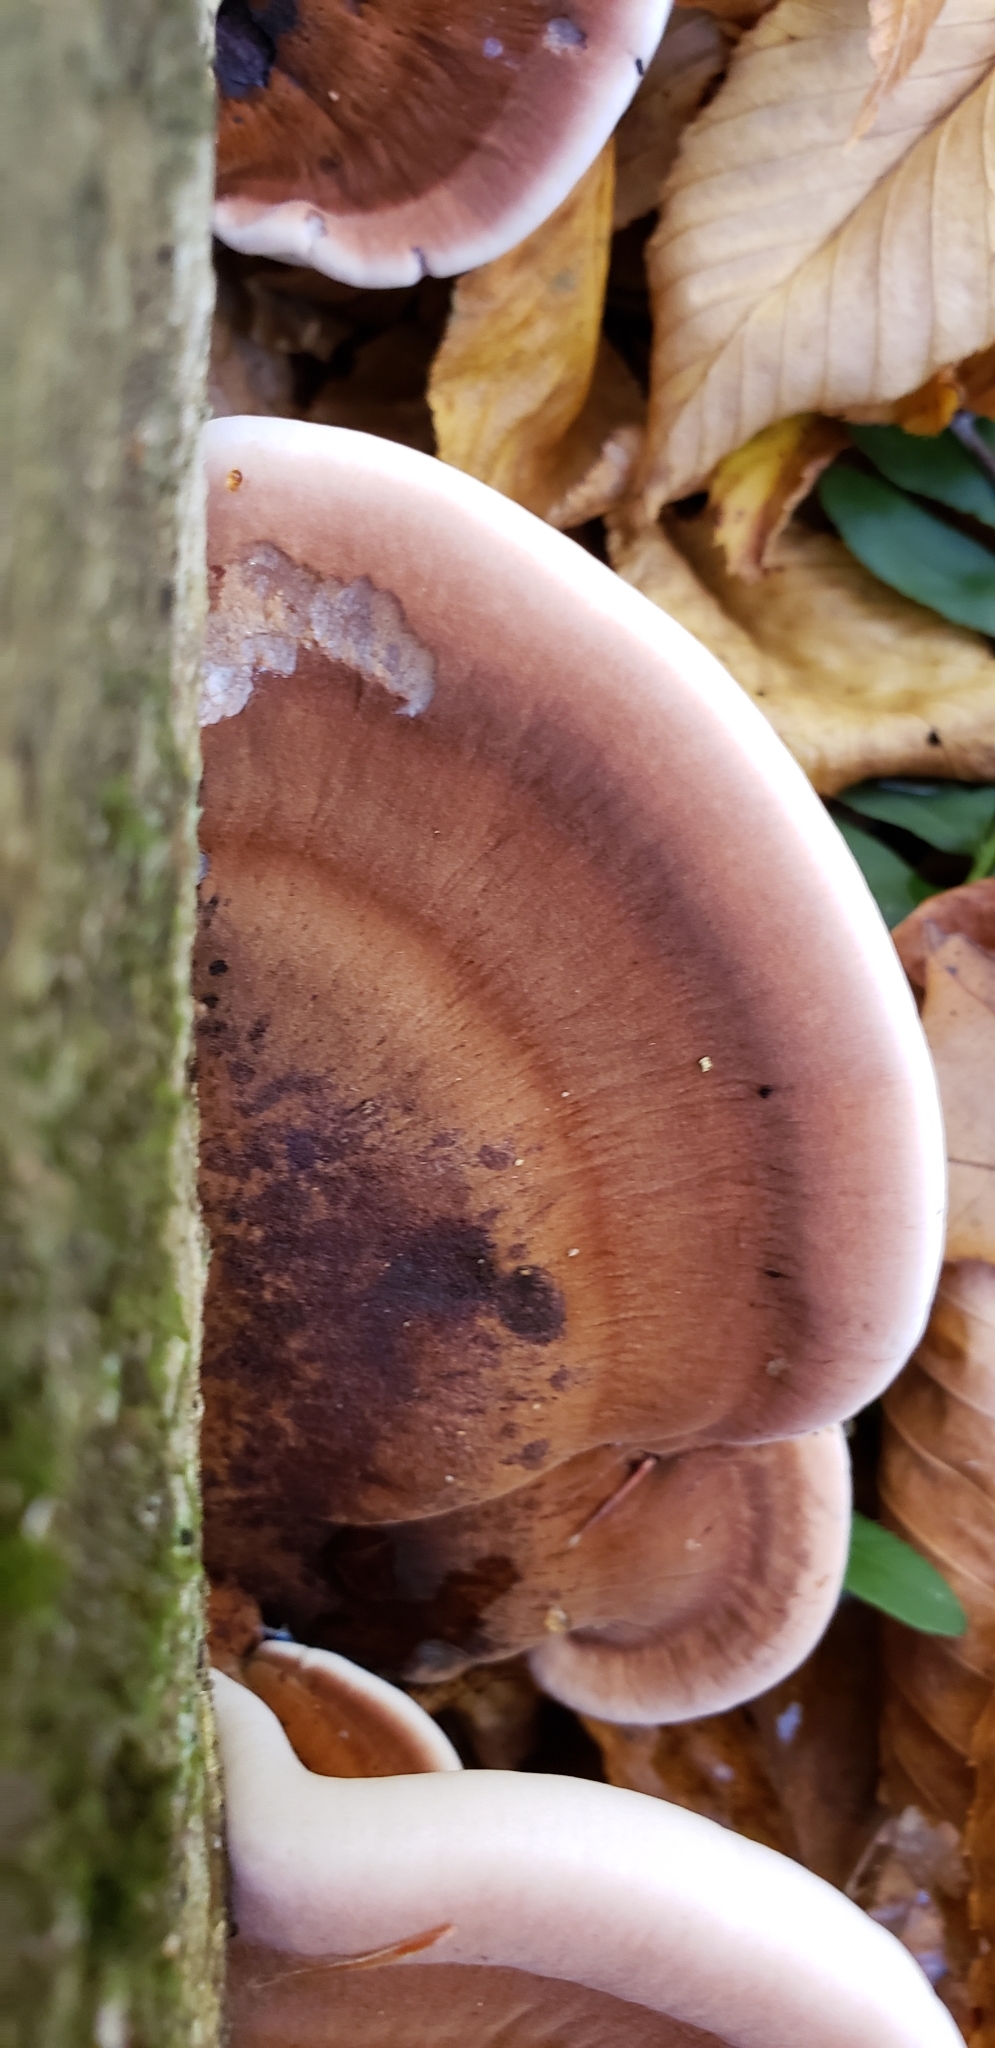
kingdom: Fungi
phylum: Basidiomycota
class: Agaricomycetes
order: Polyporales
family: Ischnodermataceae
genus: Ischnoderma
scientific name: Ischnoderma resinosum
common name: Resinous polypore
